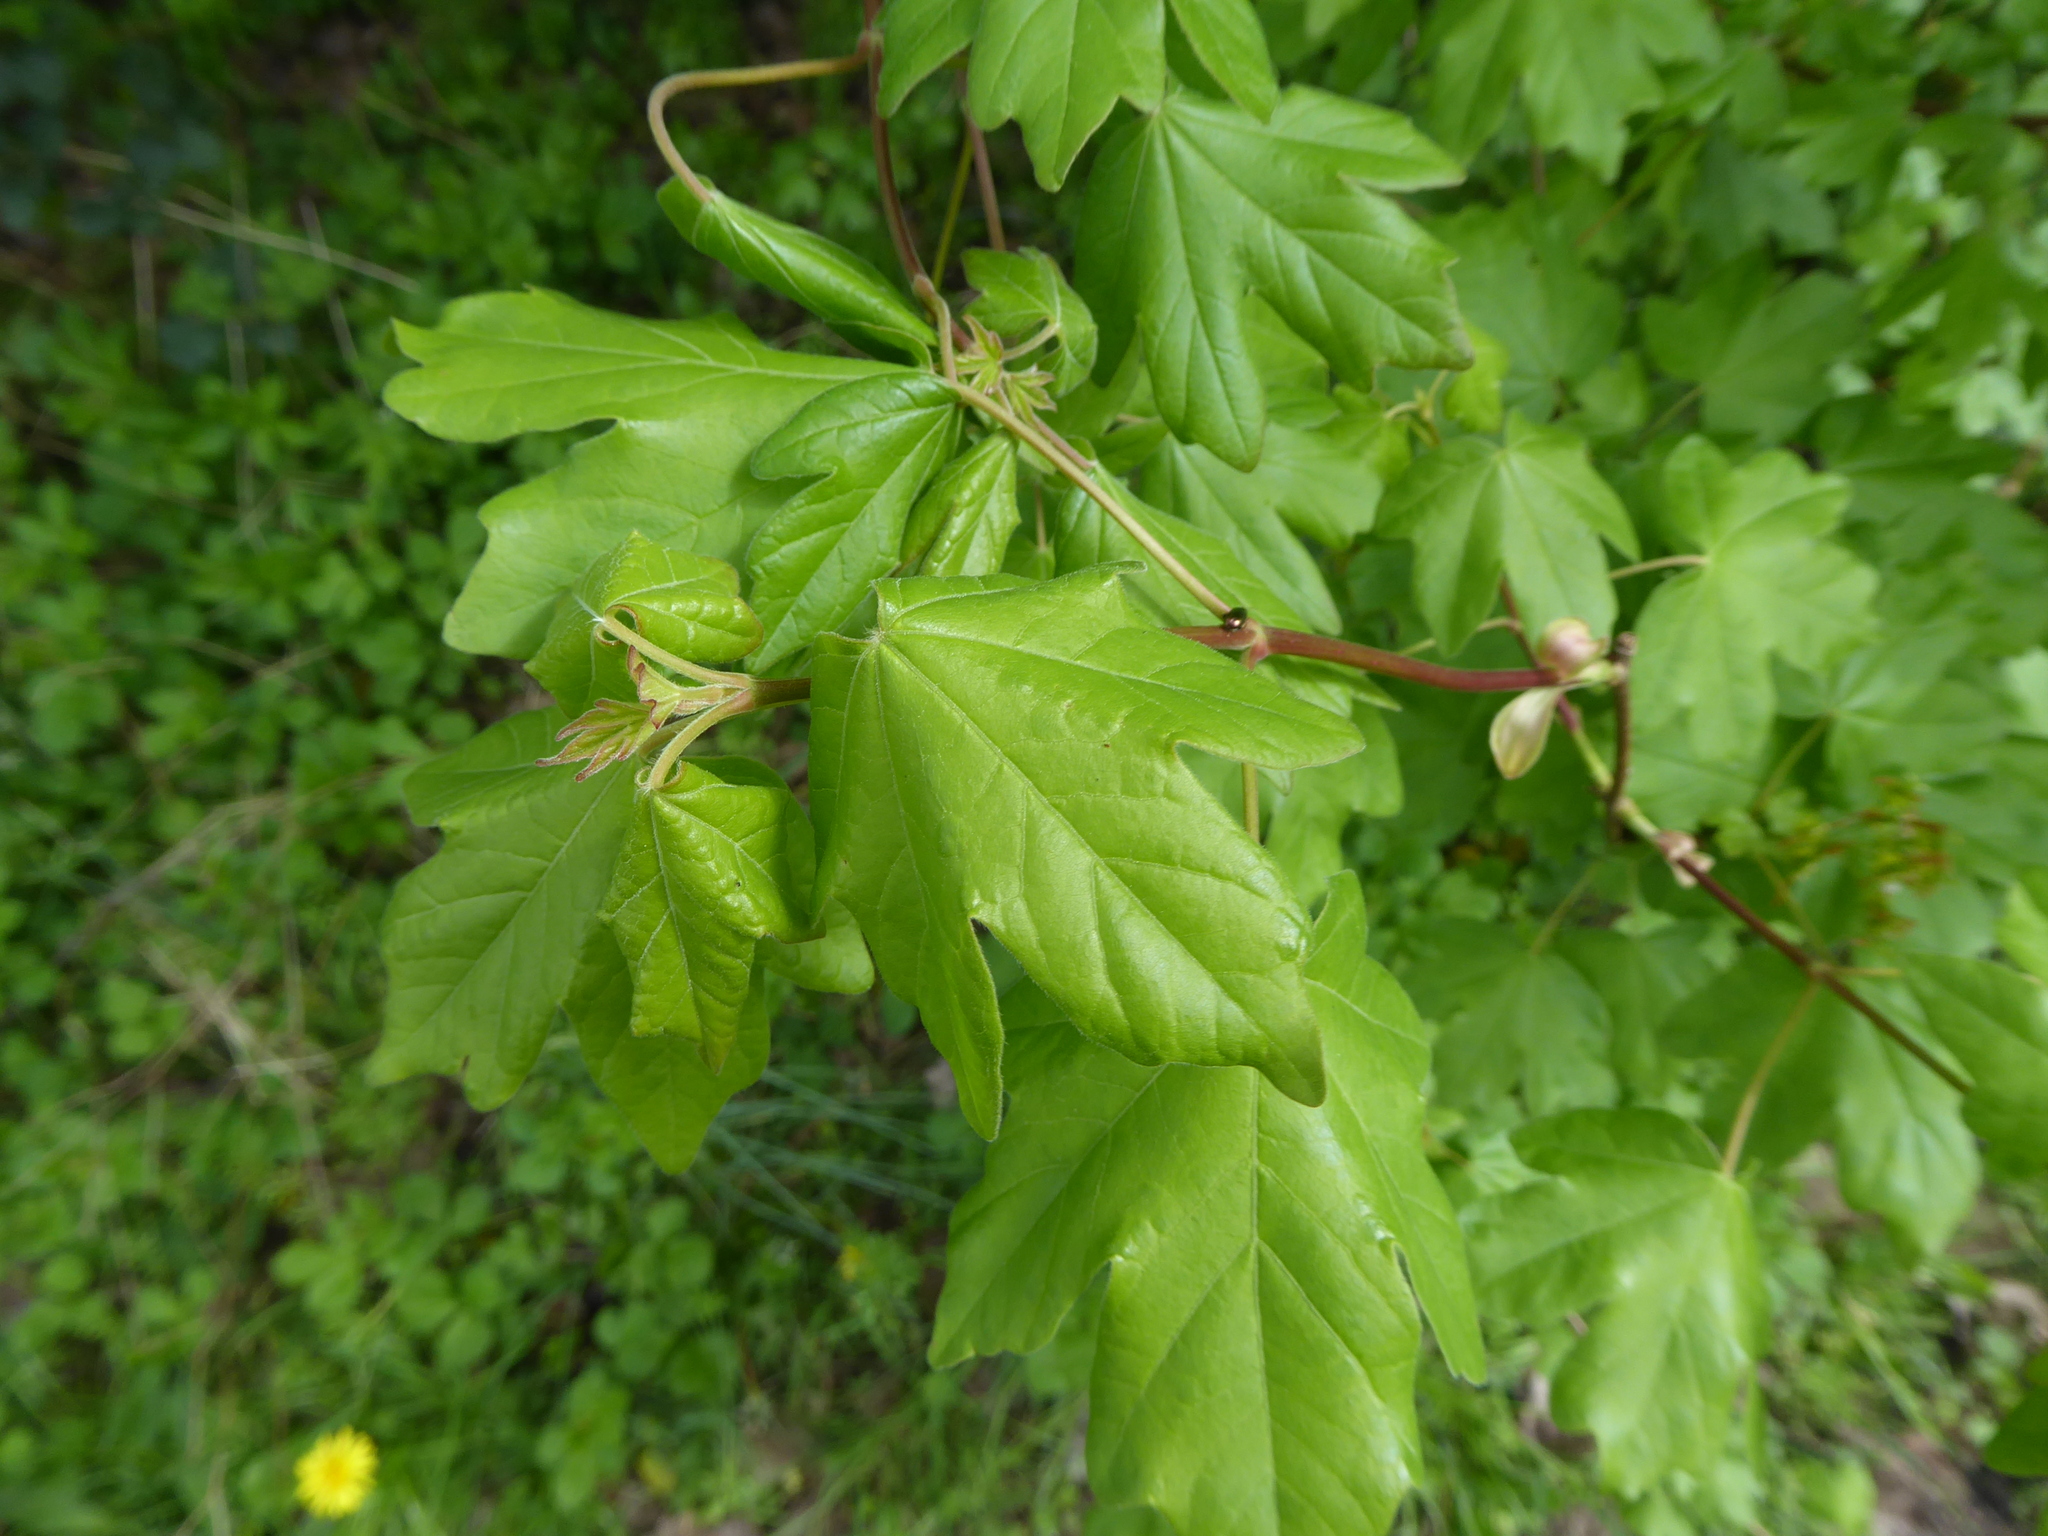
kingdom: Plantae
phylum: Tracheophyta
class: Magnoliopsida
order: Sapindales
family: Sapindaceae
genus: Acer
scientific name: Acer campestre
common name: Field maple
